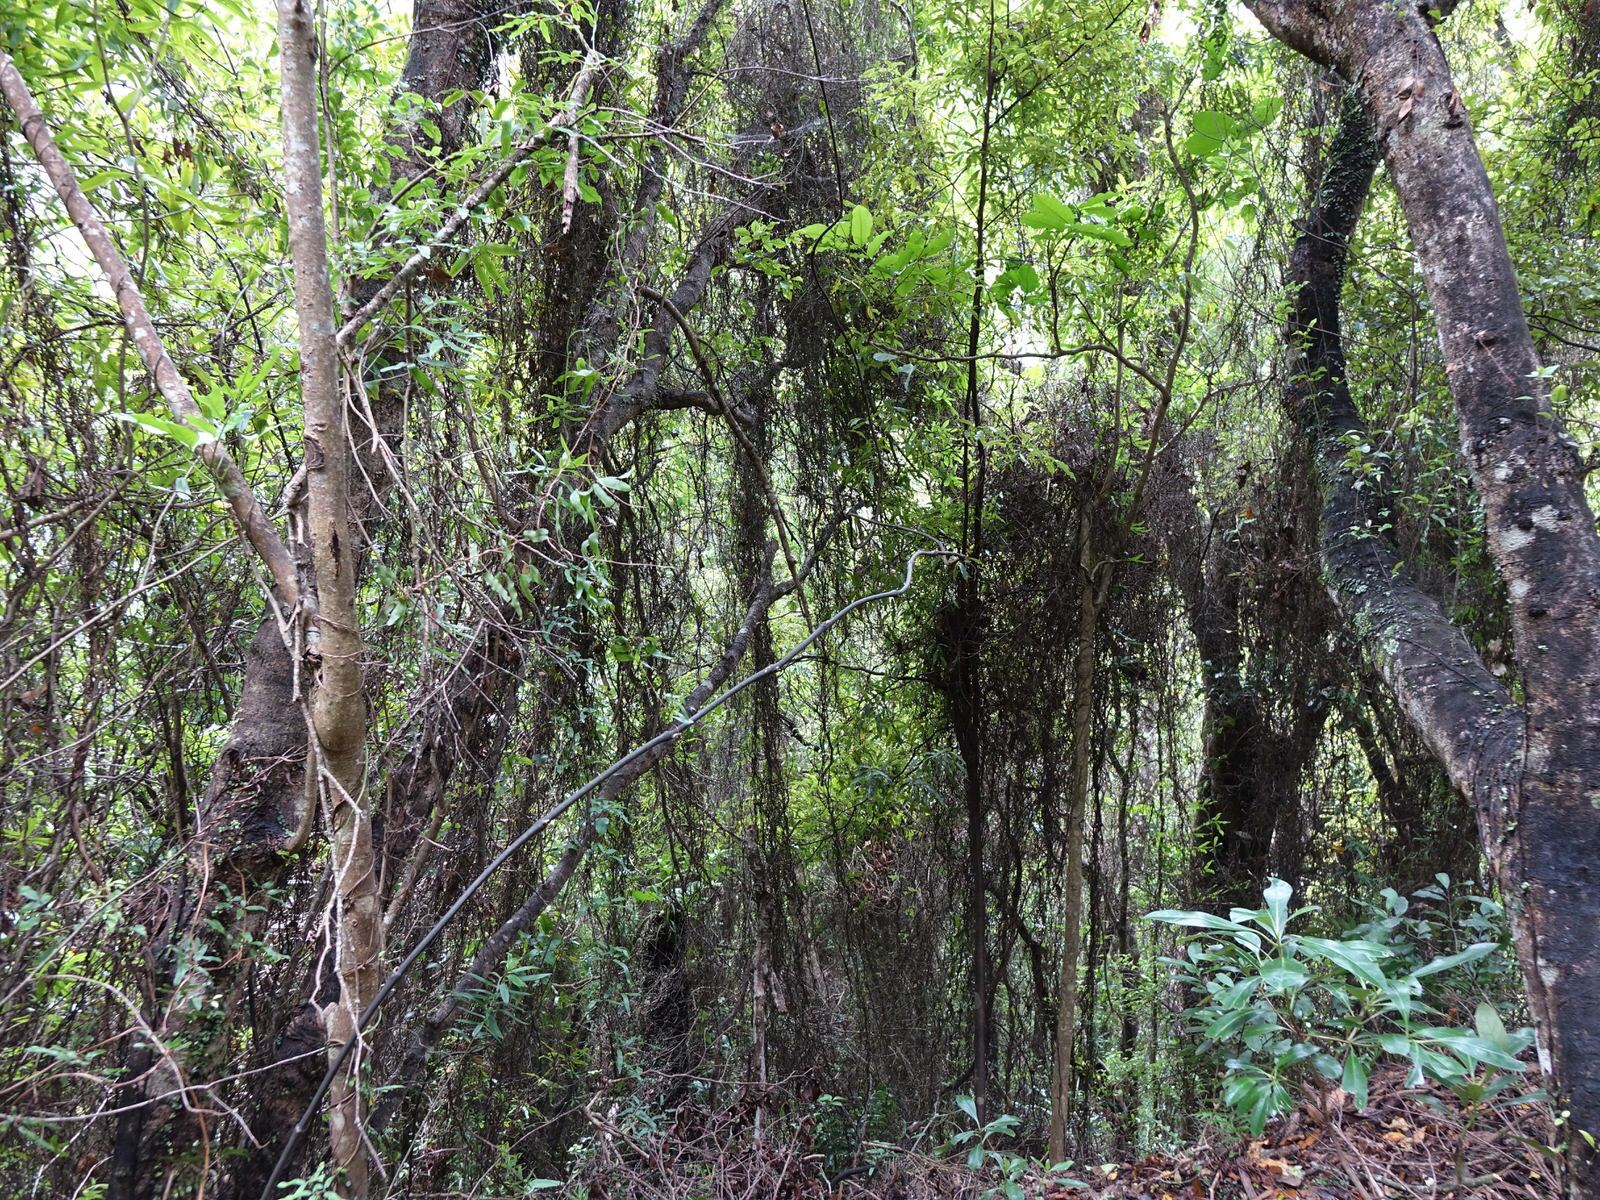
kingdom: Plantae
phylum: Tracheophyta
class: Polypodiopsida
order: Schizaeales
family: Lygodiaceae
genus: Lygodium
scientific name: Lygodium articulatum
